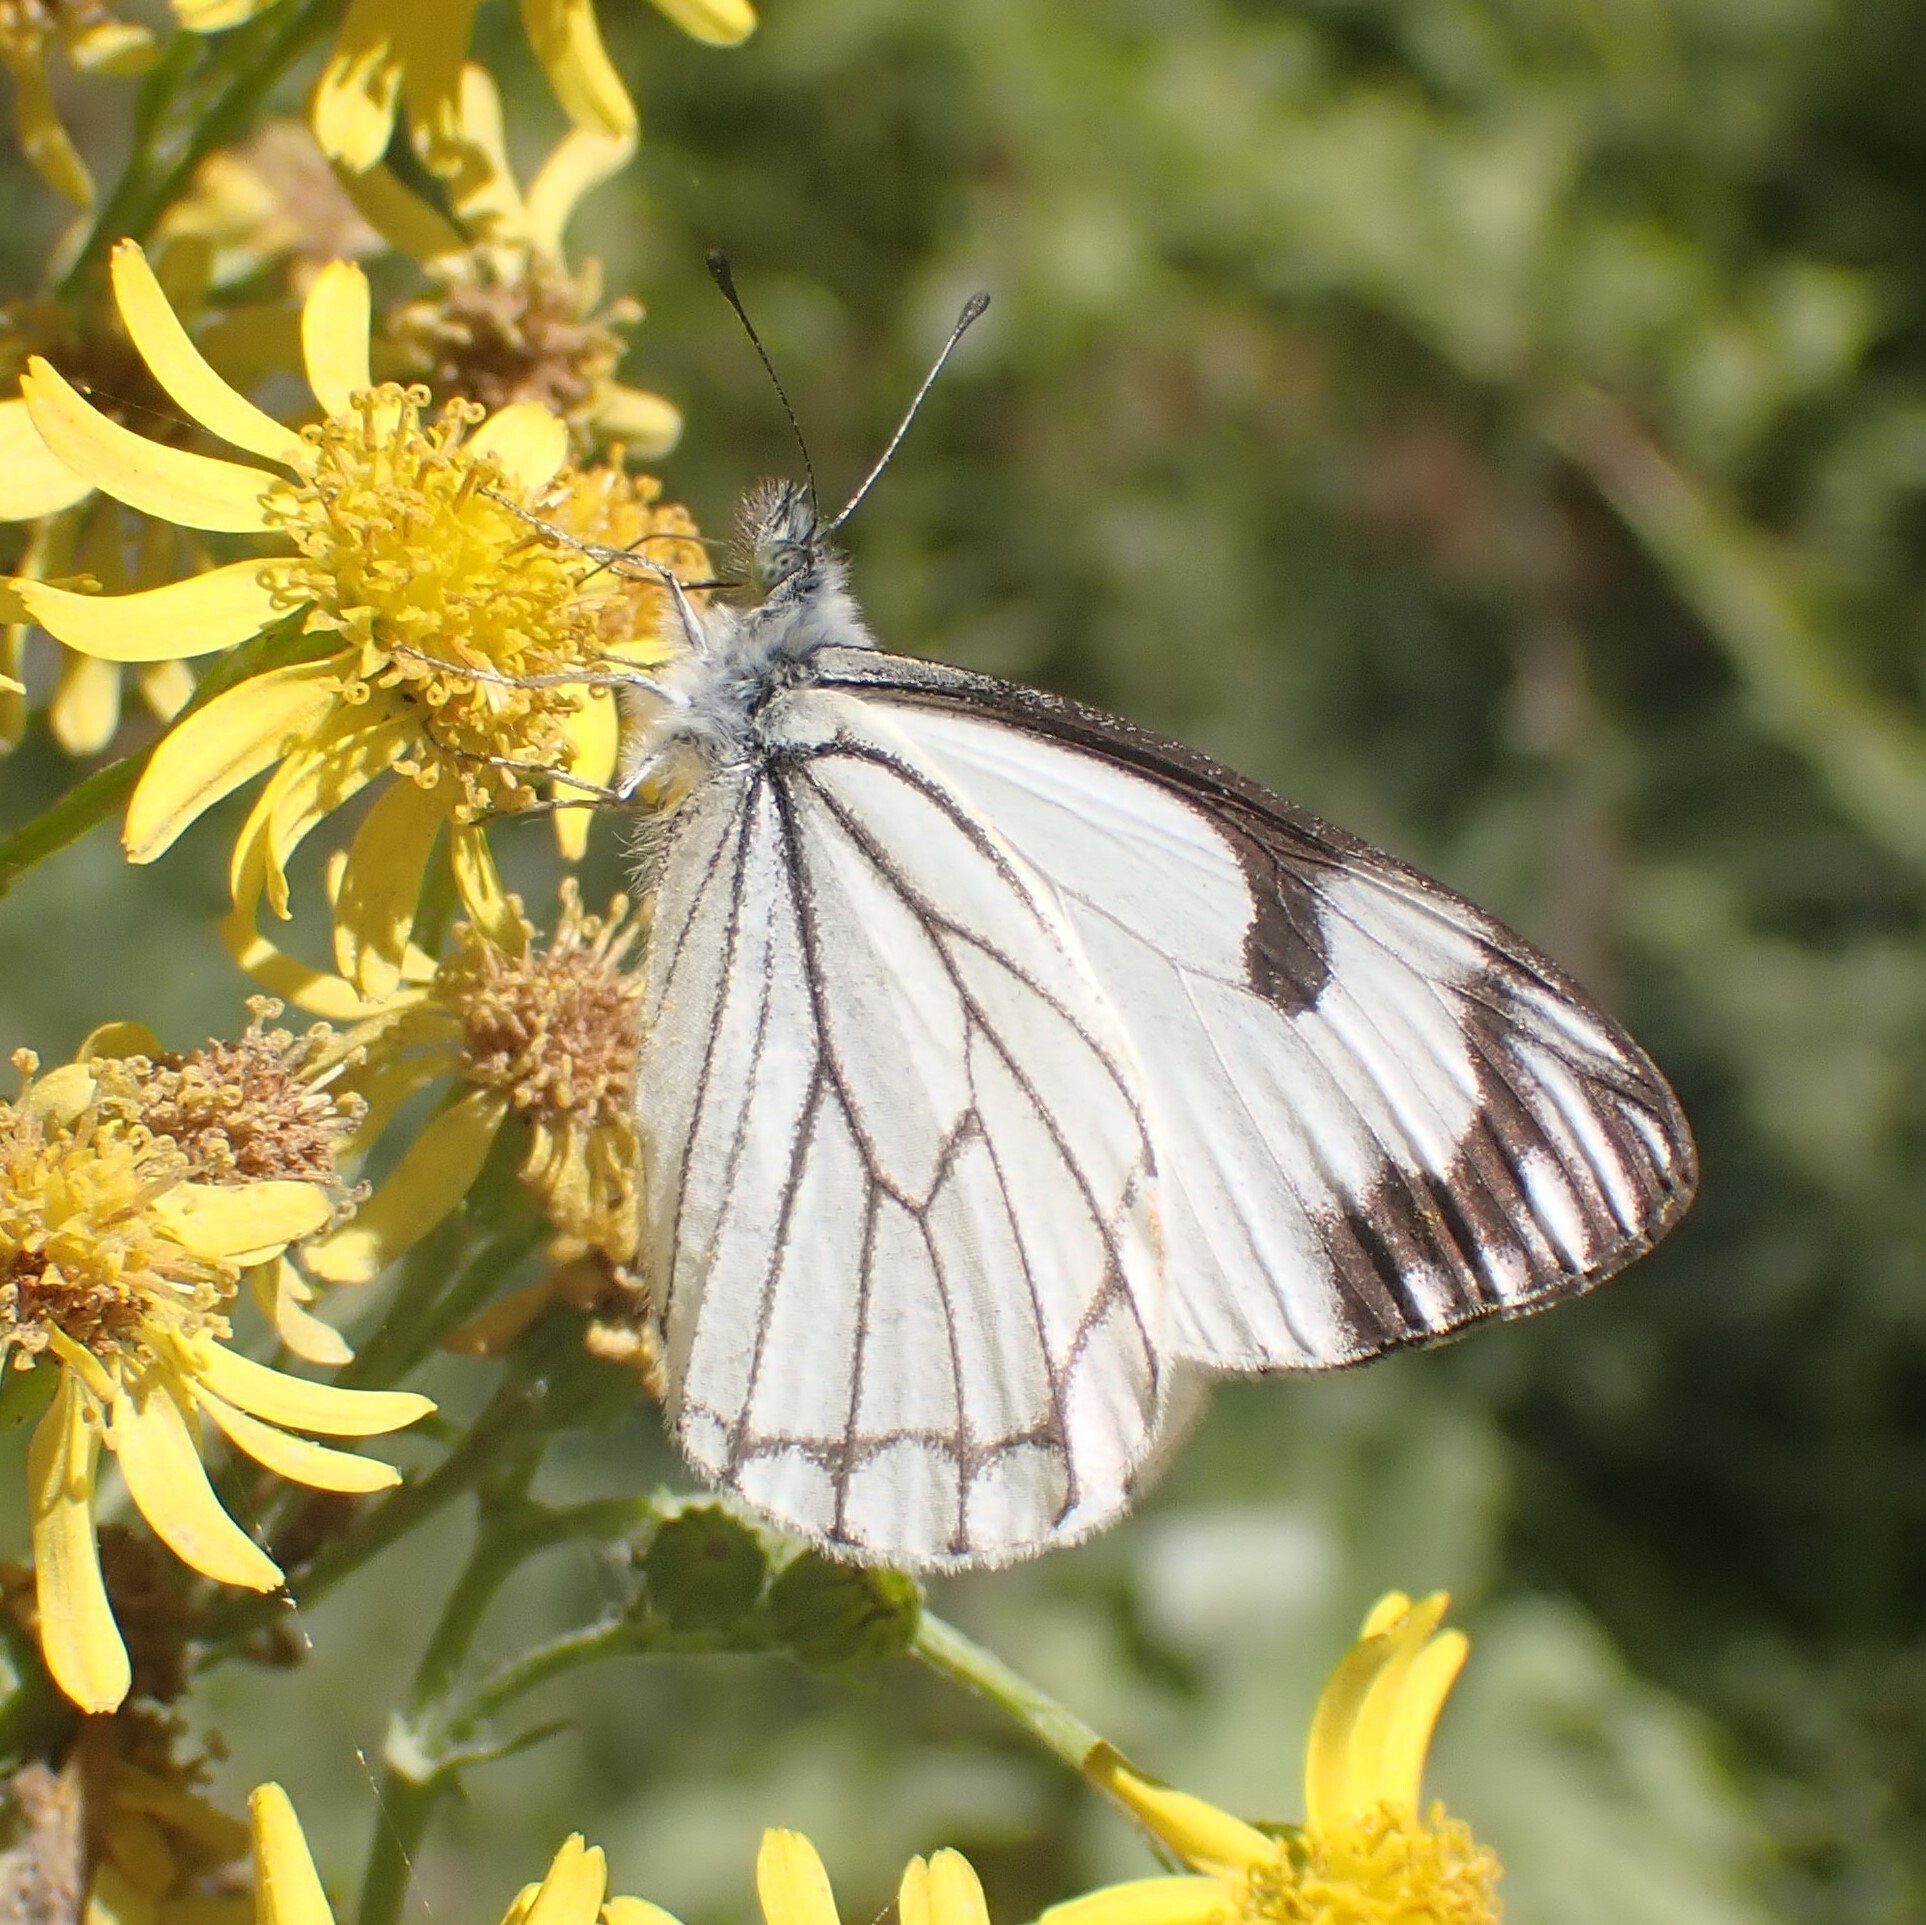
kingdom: Animalia
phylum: Arthropoda
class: Insecta
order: Lepidoptera
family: Pieridae
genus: Neophasia
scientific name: Neophasia menapia
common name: Pine white
